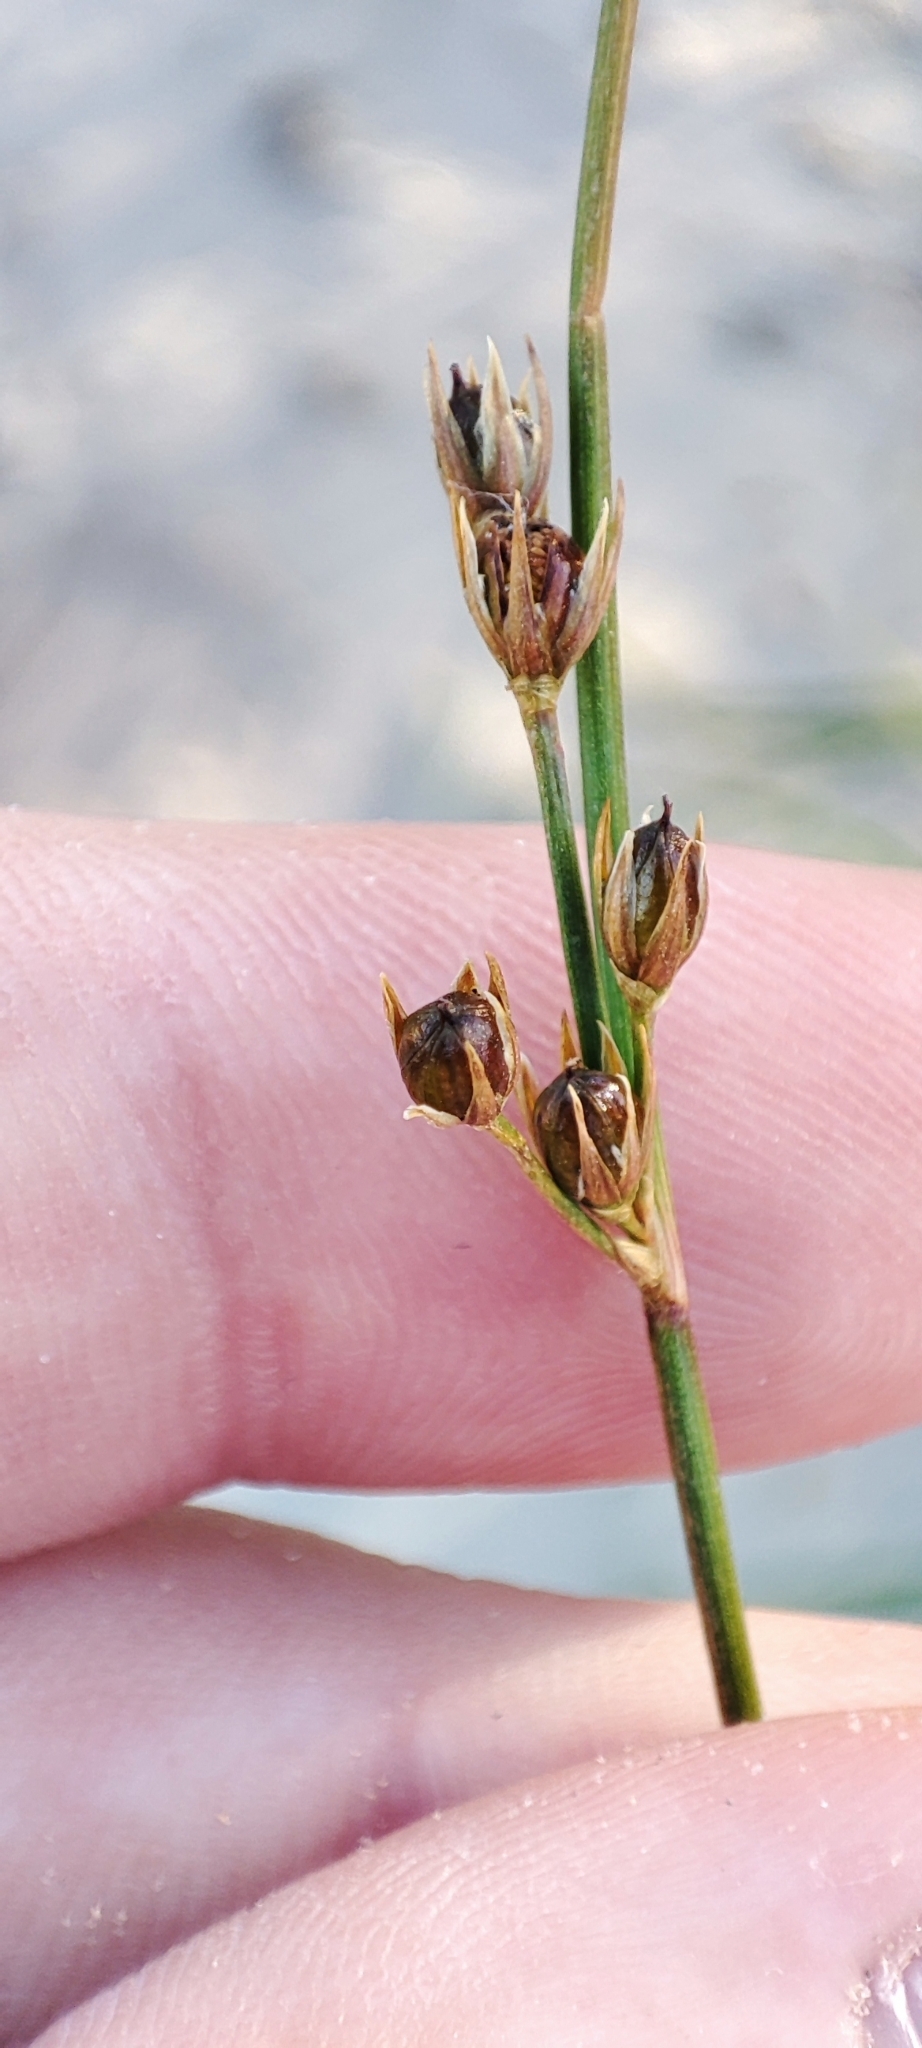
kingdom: Plantae
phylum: Tracheophyta
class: Liliopsida
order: Poales
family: Juncaceae
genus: Juncus
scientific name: Juncus filiformis
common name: Thread rush
